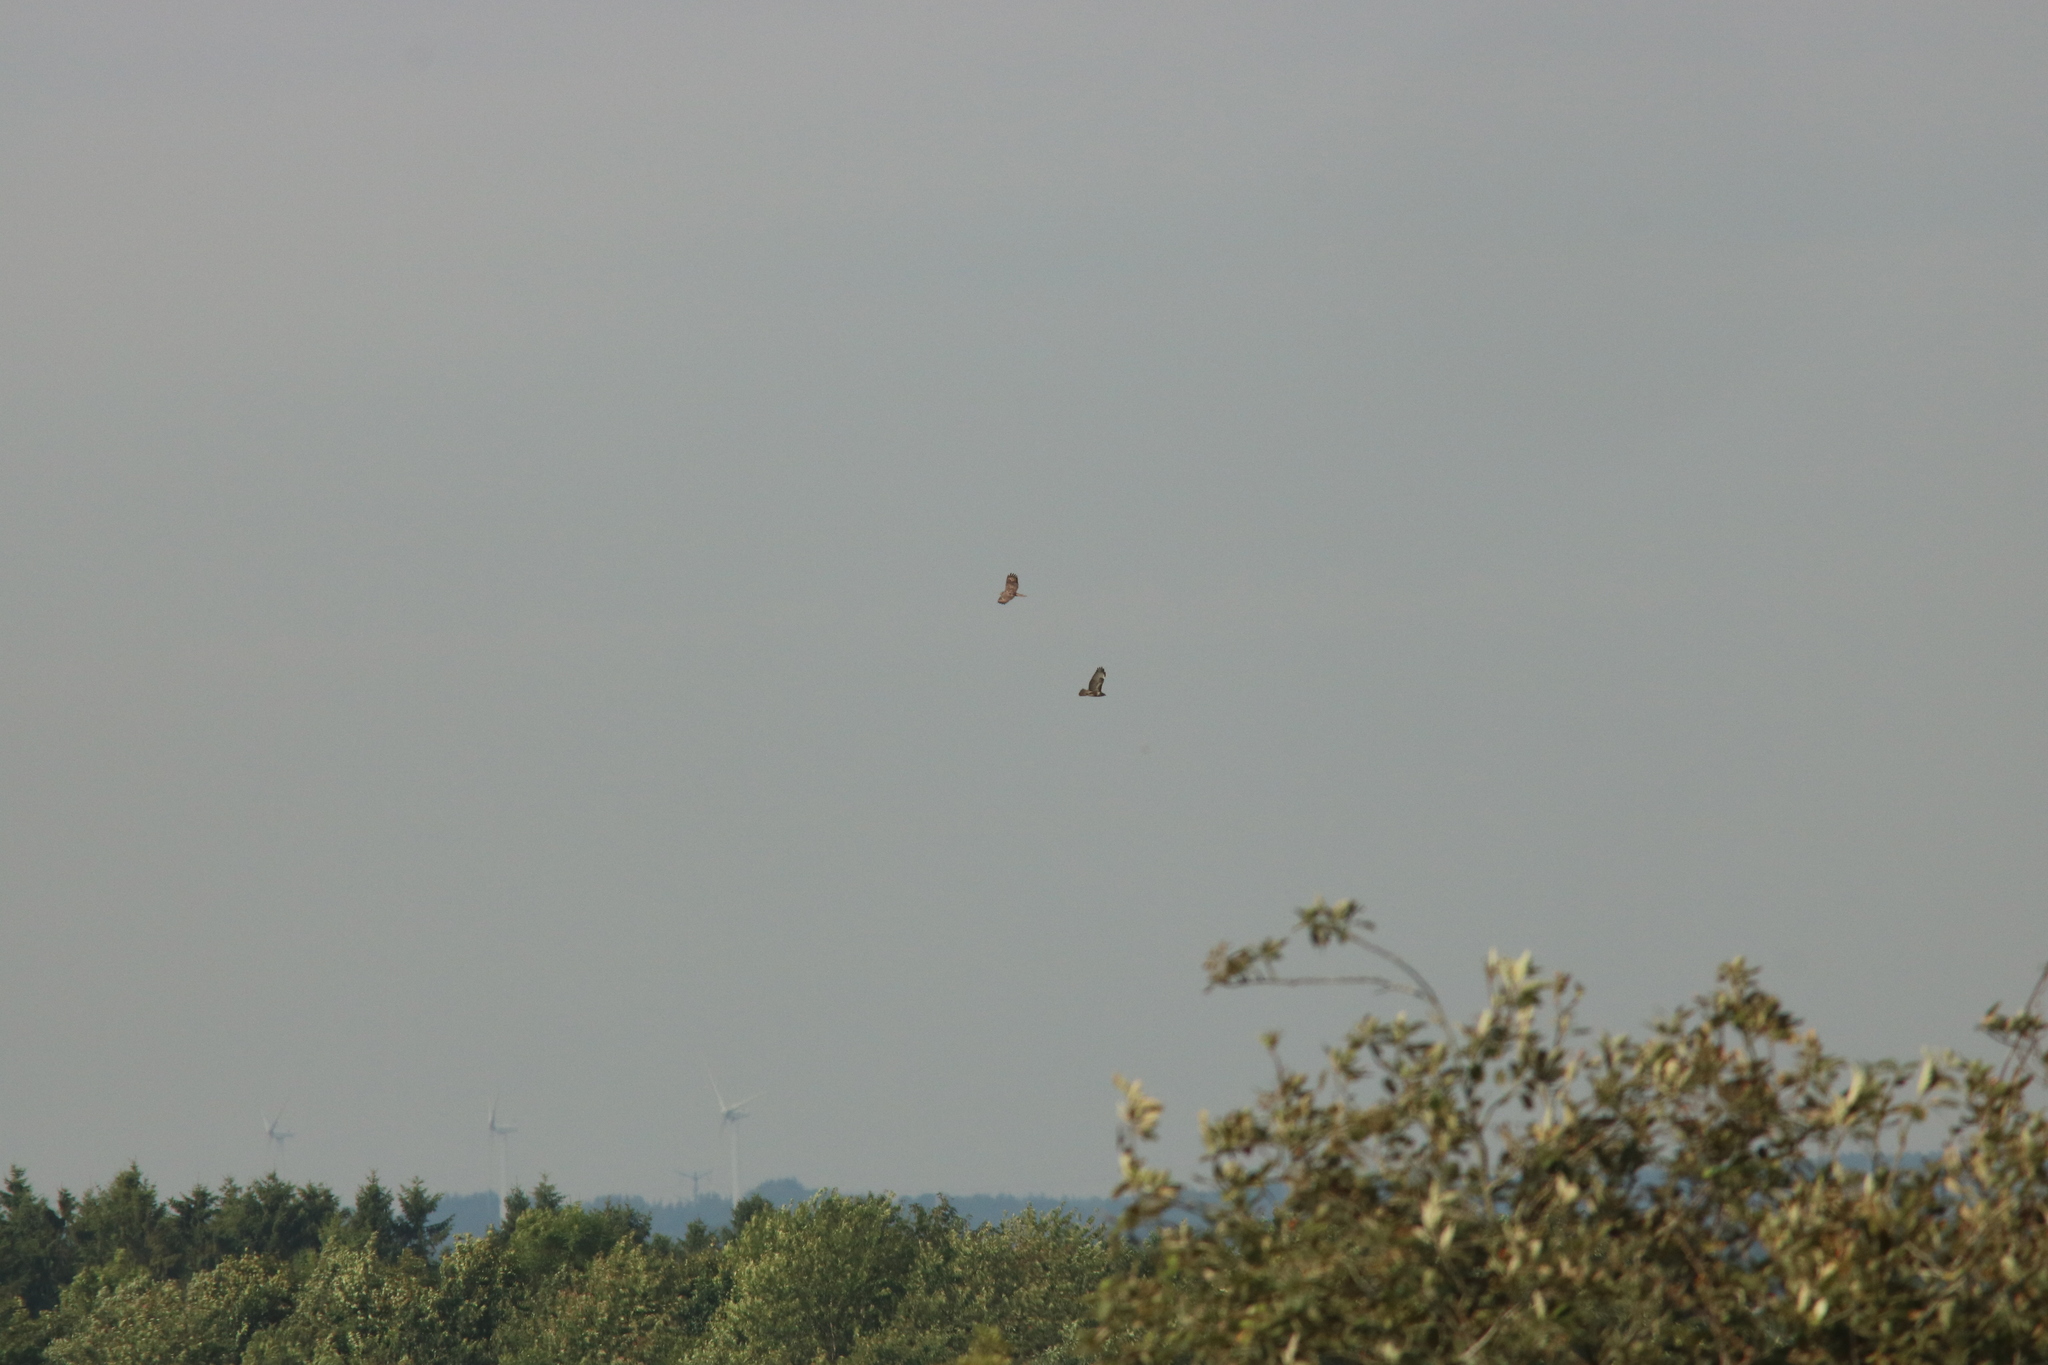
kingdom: Animalia
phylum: Chordata
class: Aves
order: Accipitriformes
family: Accipitridae
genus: Pernis
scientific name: Pernis apivorus
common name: European honey buzzard
